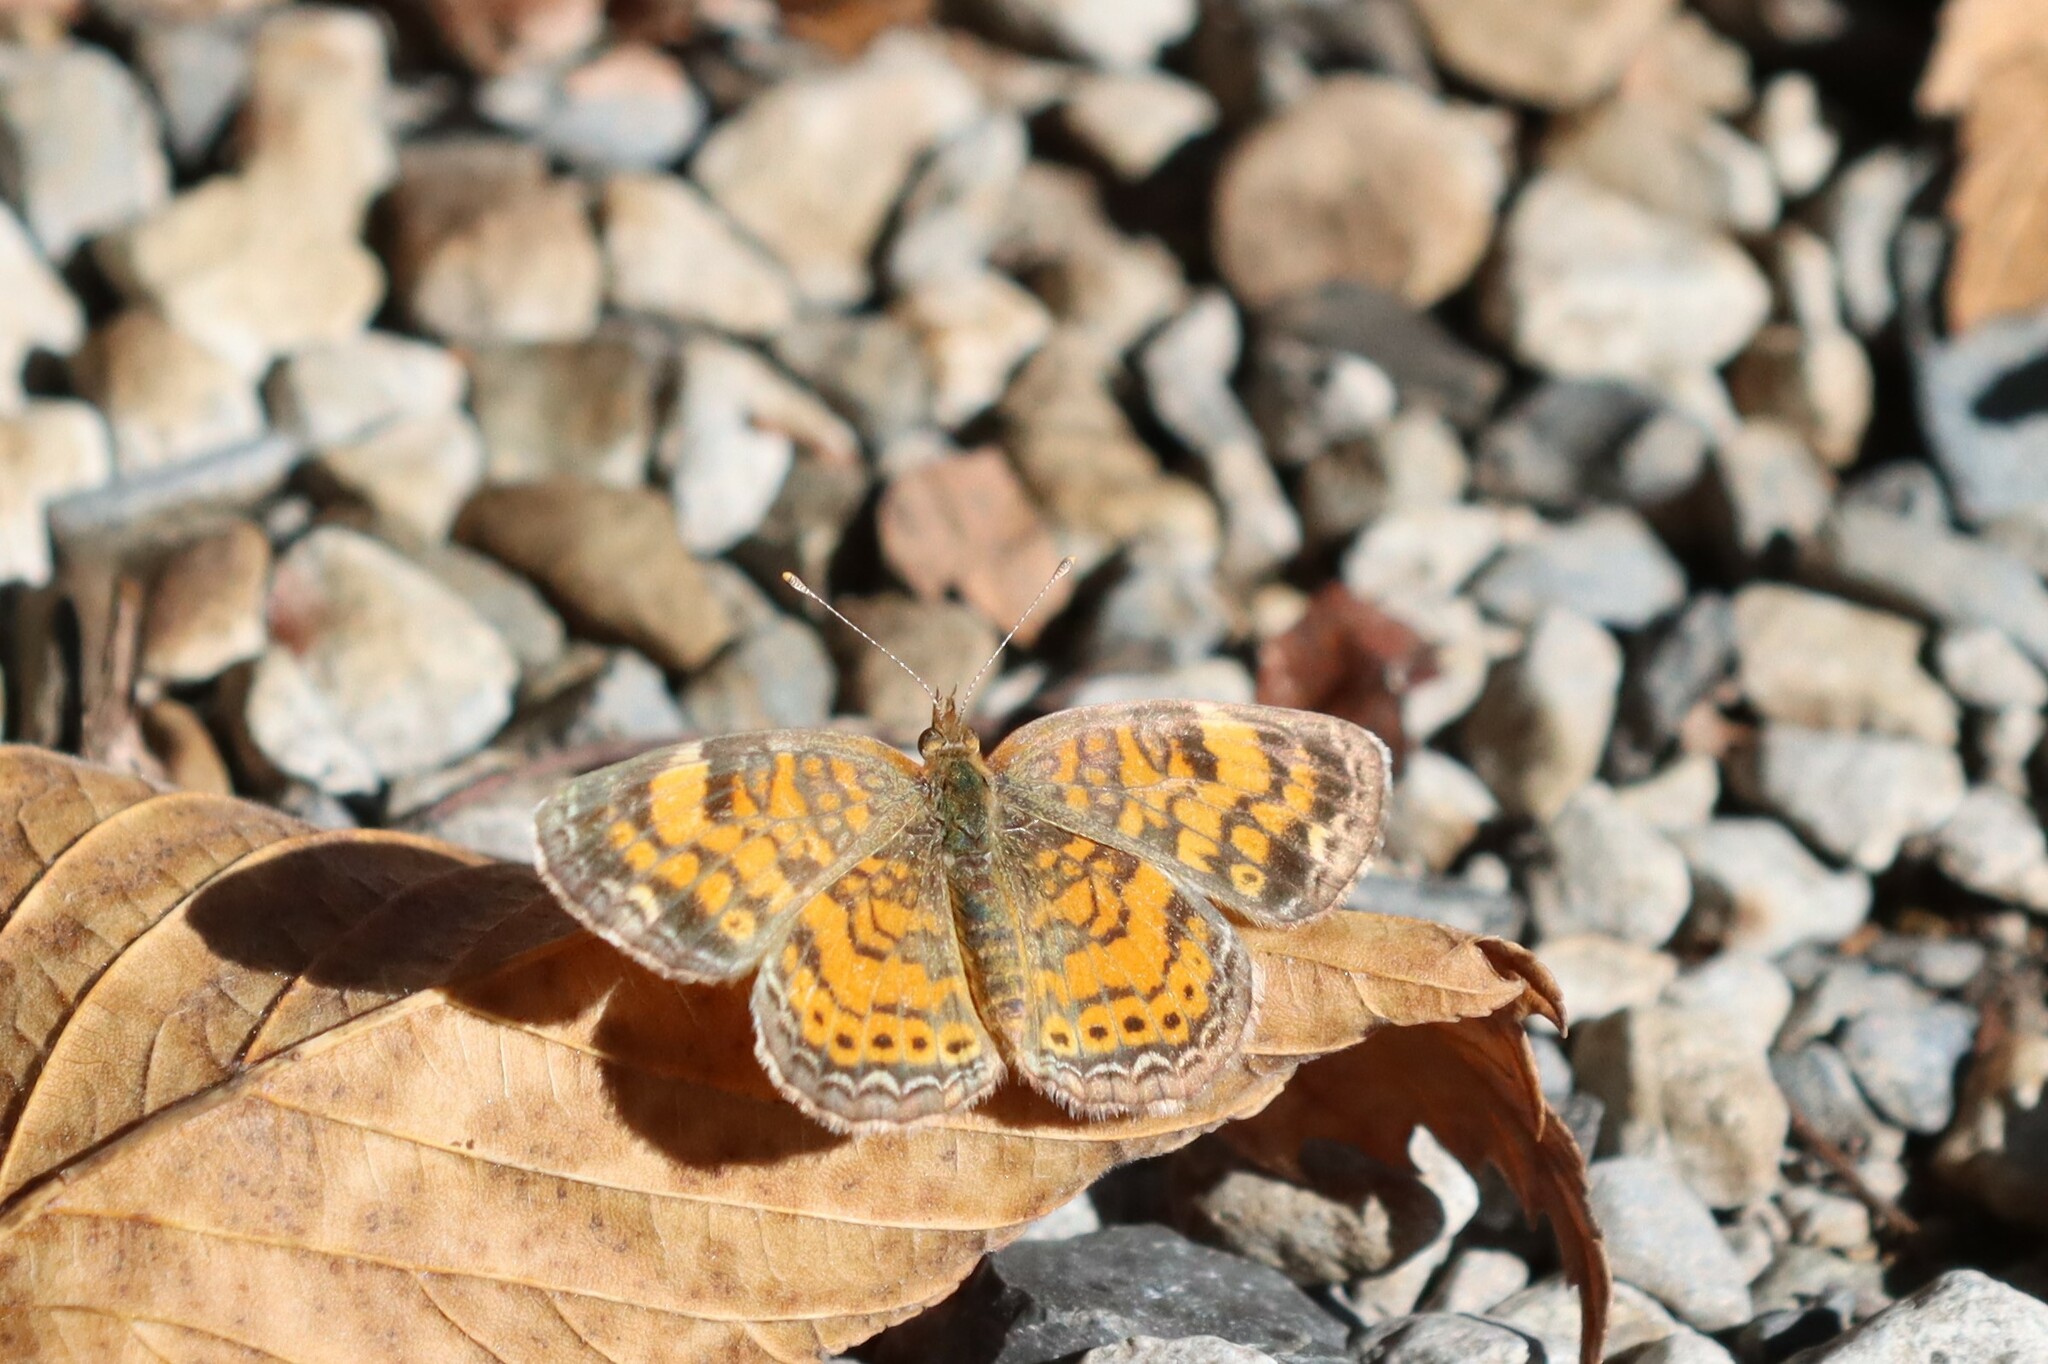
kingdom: Animalia
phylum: Arthropoda
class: Insecta
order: Lepidoptera
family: Nymphalidae
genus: Phyciodes
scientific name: Phyciodes tharos
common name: Pearl crescent
